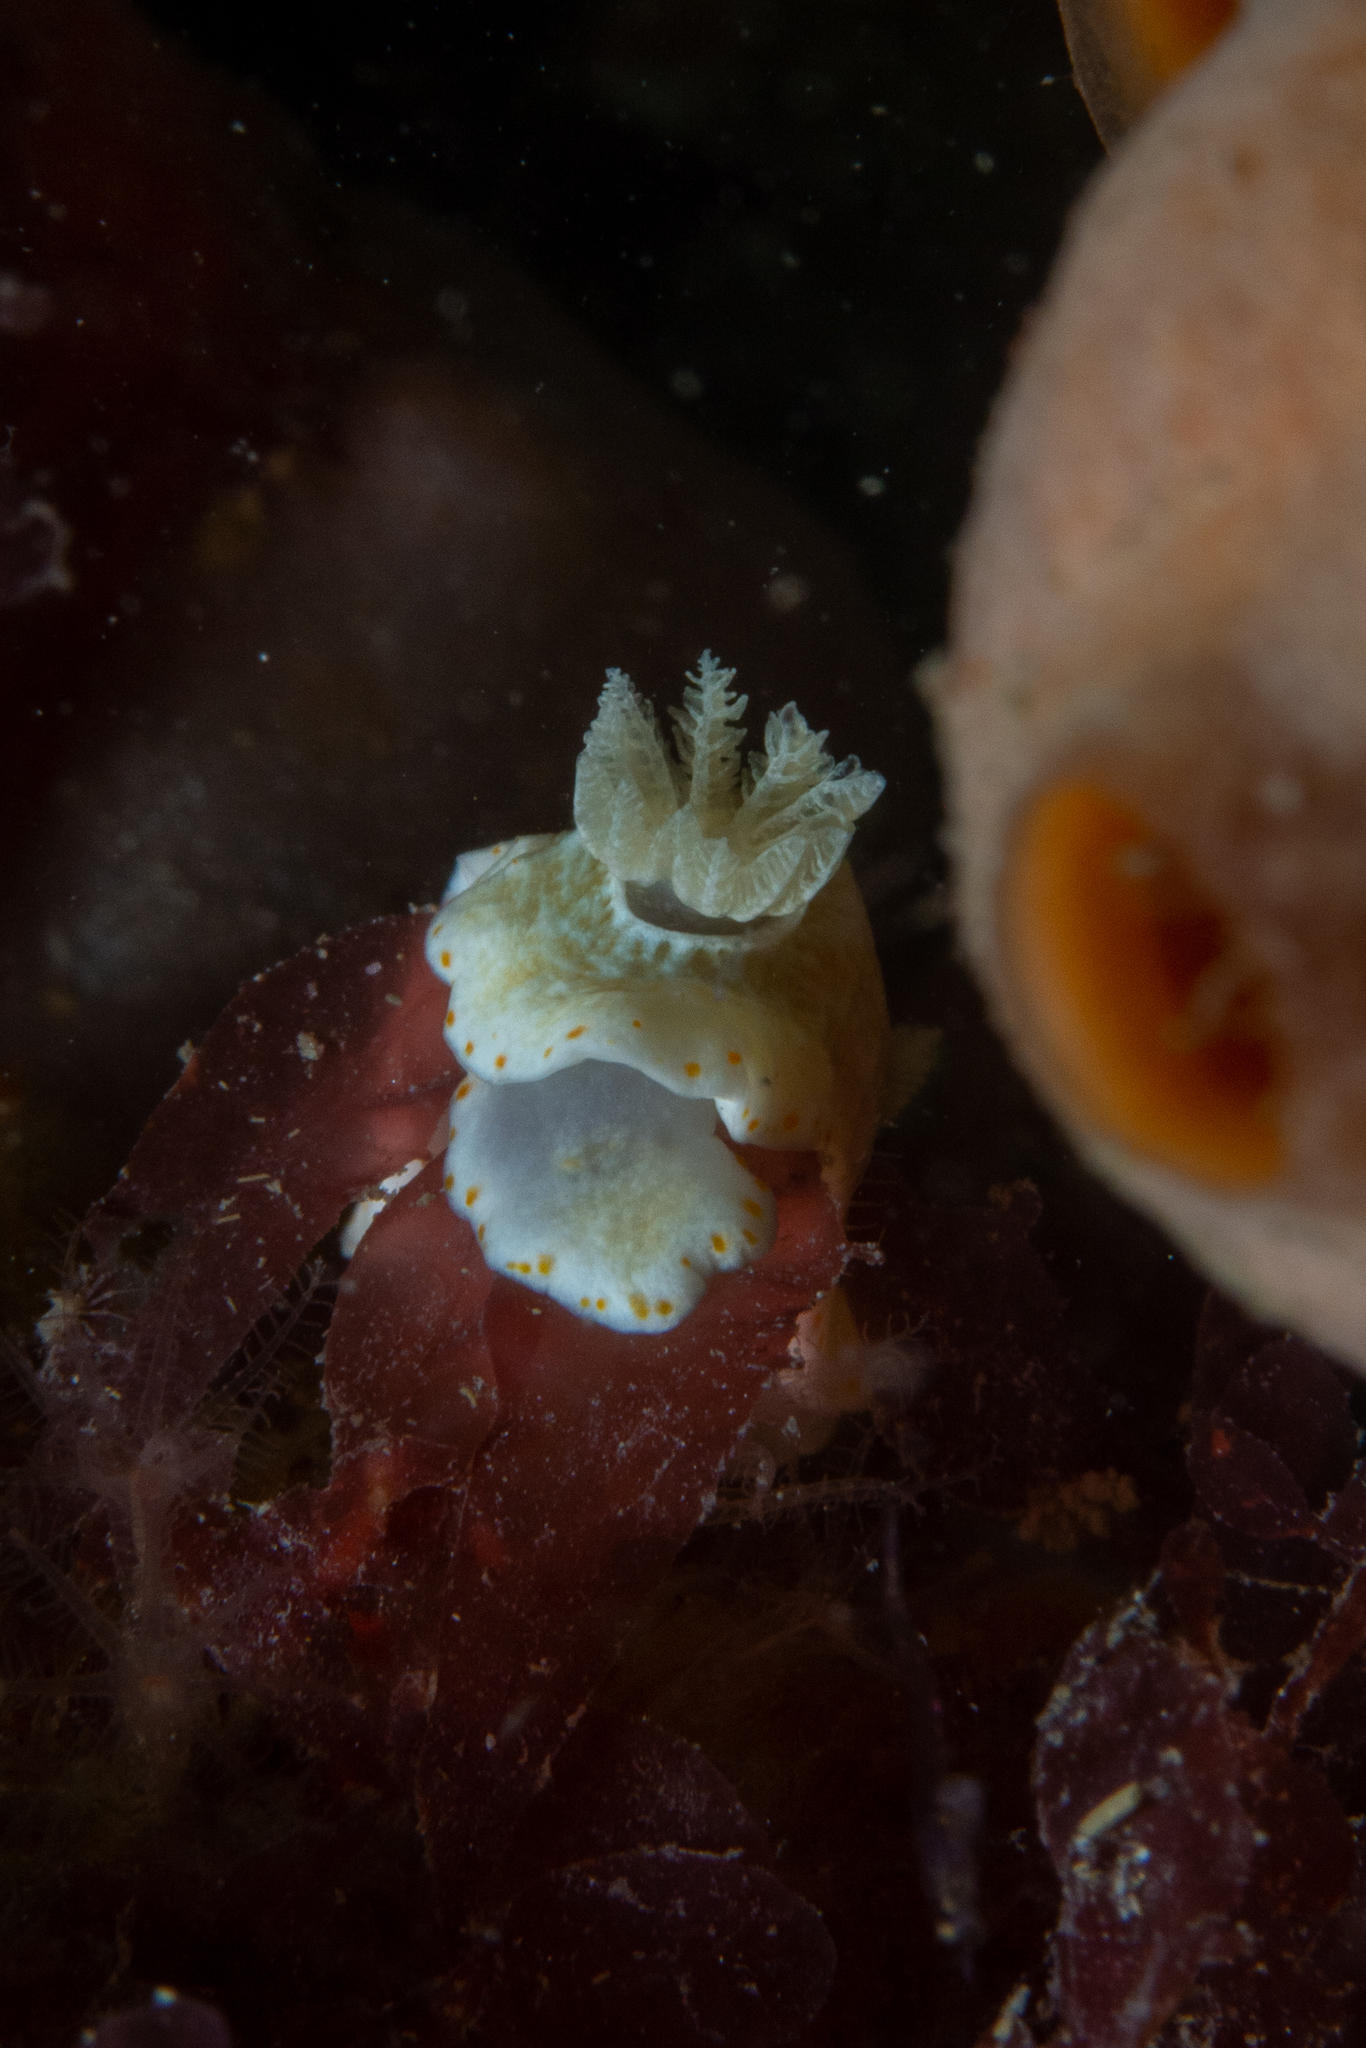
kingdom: Animalia
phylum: Mollusca
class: Gastropoda
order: Nudibranchia
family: Chromodorididae
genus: Goniobranchus
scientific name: Goniobranchus epicurius
